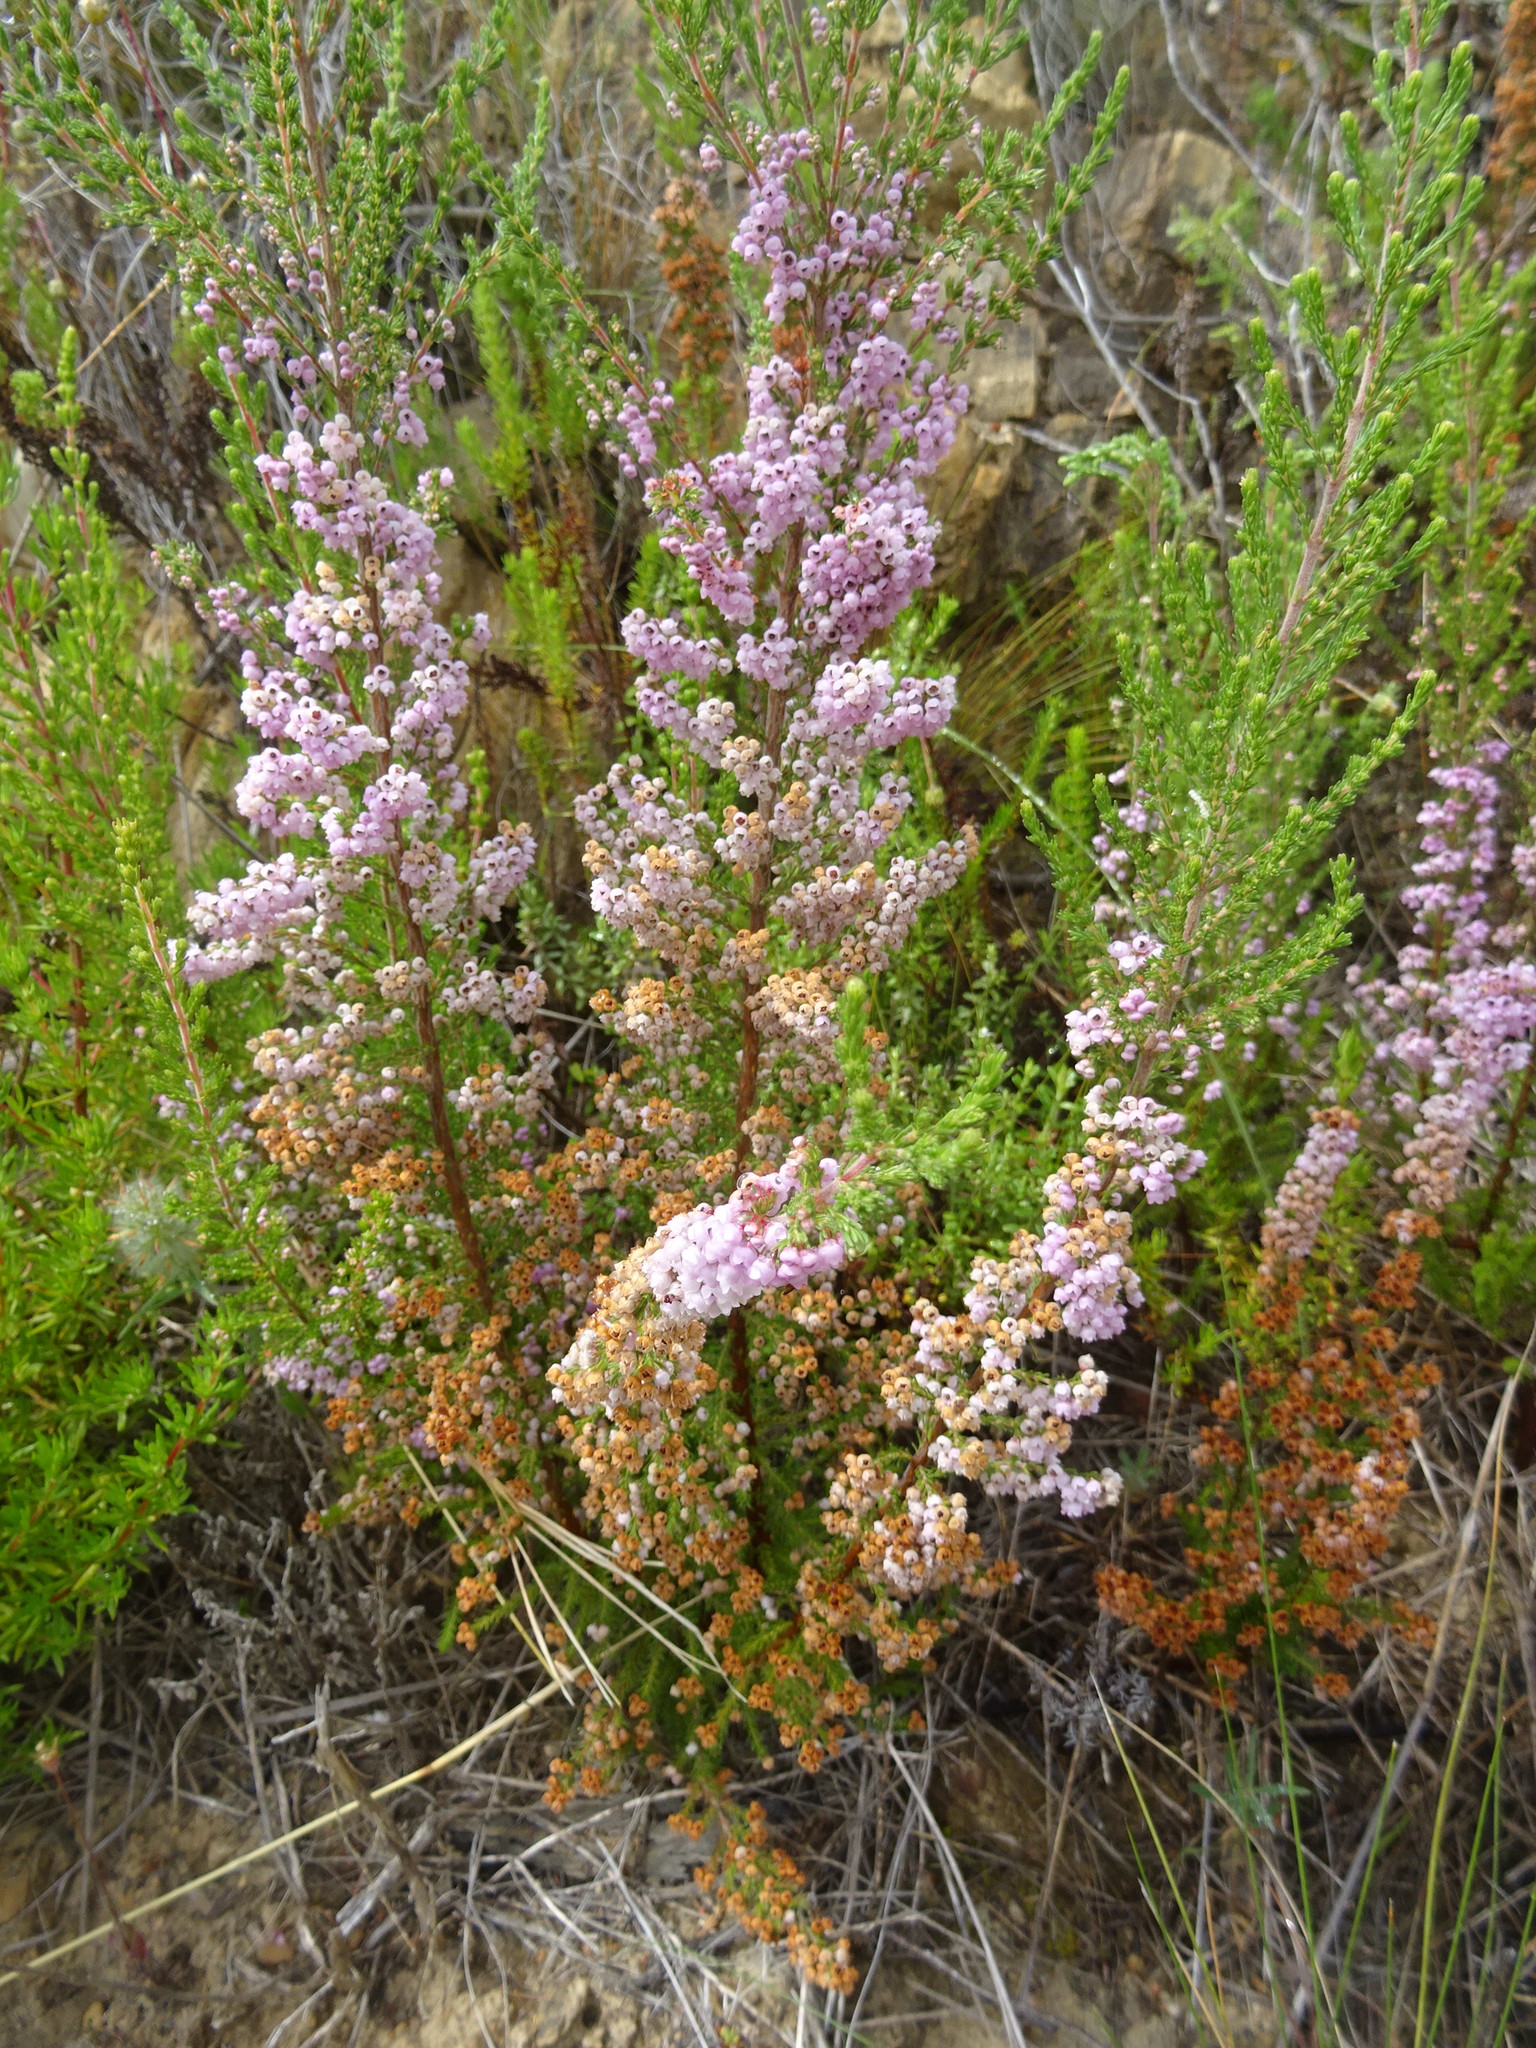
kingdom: Plantae
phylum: Tracheophyta
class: Magnoliopsida
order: Ericales
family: Ericaceae
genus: Erica
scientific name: Erica mauritanica
